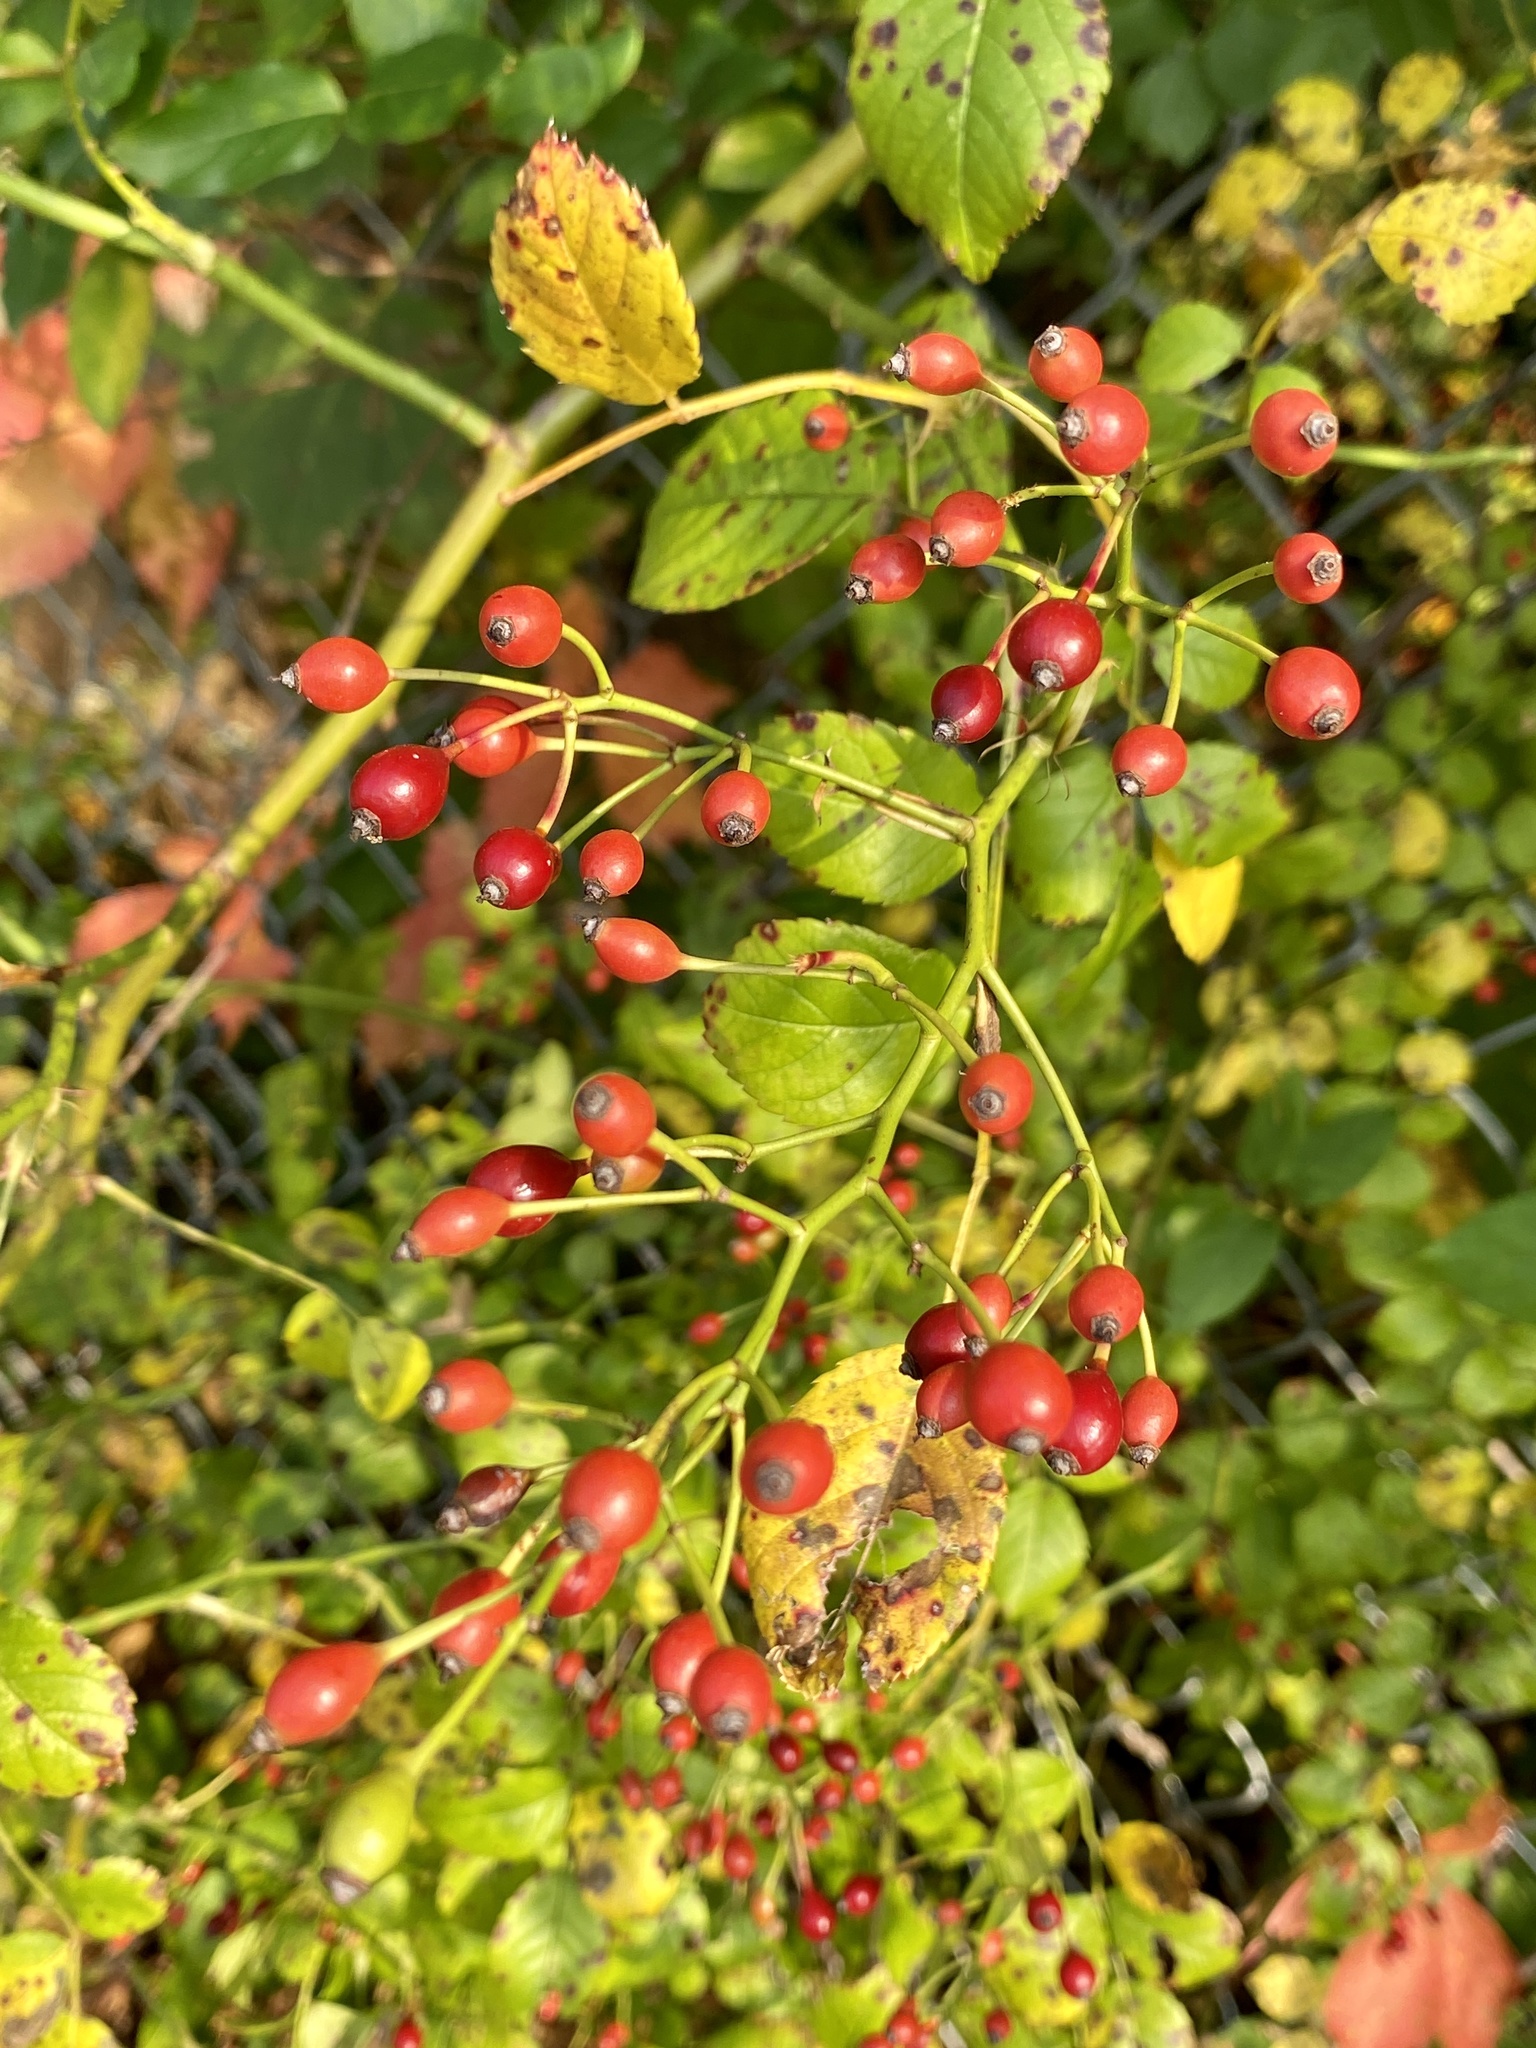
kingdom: Plantae
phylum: Tracheophyta
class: Magnoliopsida
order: Rosales
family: Rosaceae
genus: Rosa
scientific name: Rosa multiflora
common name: Multiflora rose
